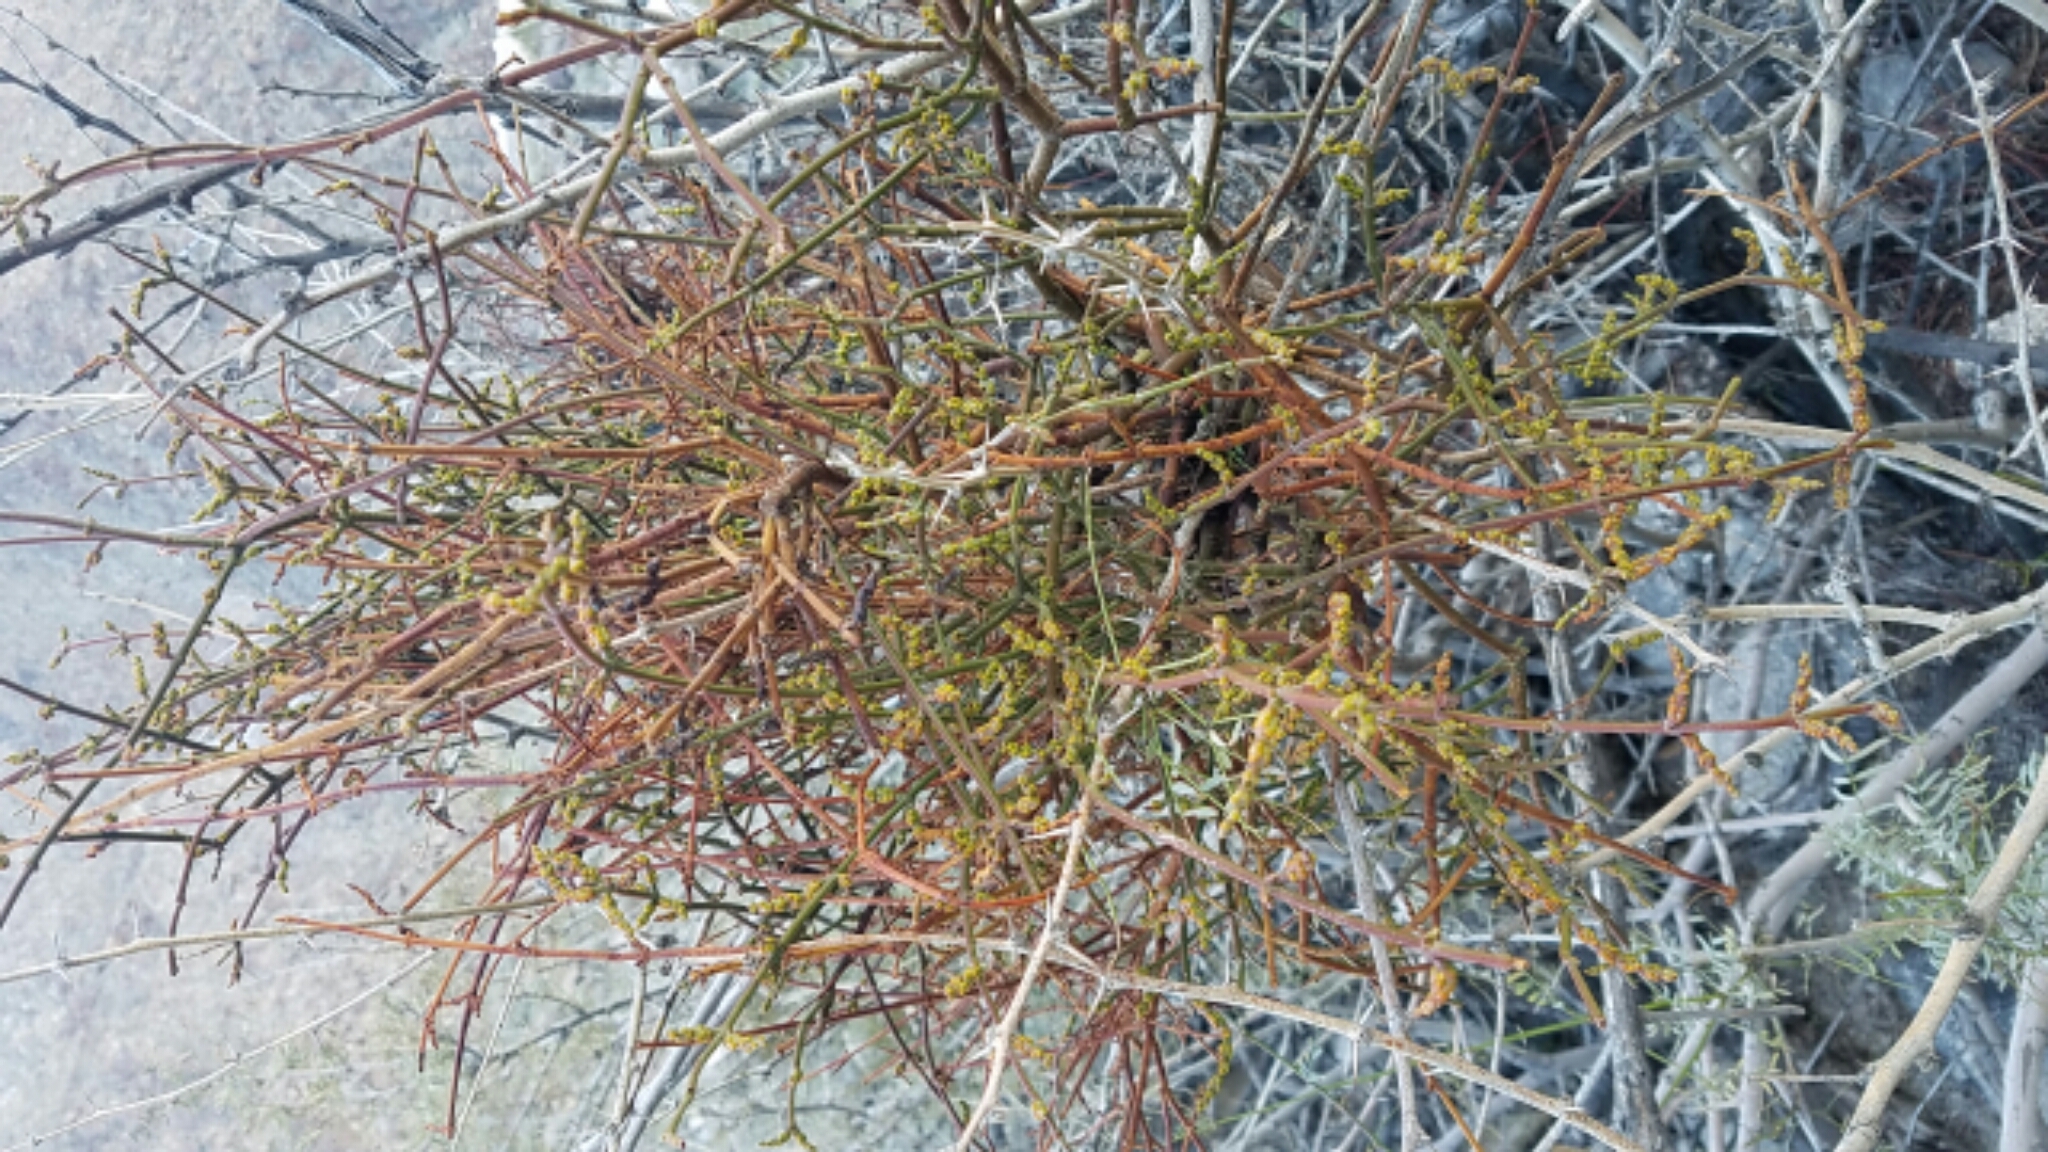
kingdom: Plantae
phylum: Tracheophyta
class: Magnoliopsida
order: Santalales
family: Viscaceae
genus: Phoradendron
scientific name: Phoradendron californicum
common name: Acacia mistletoe
